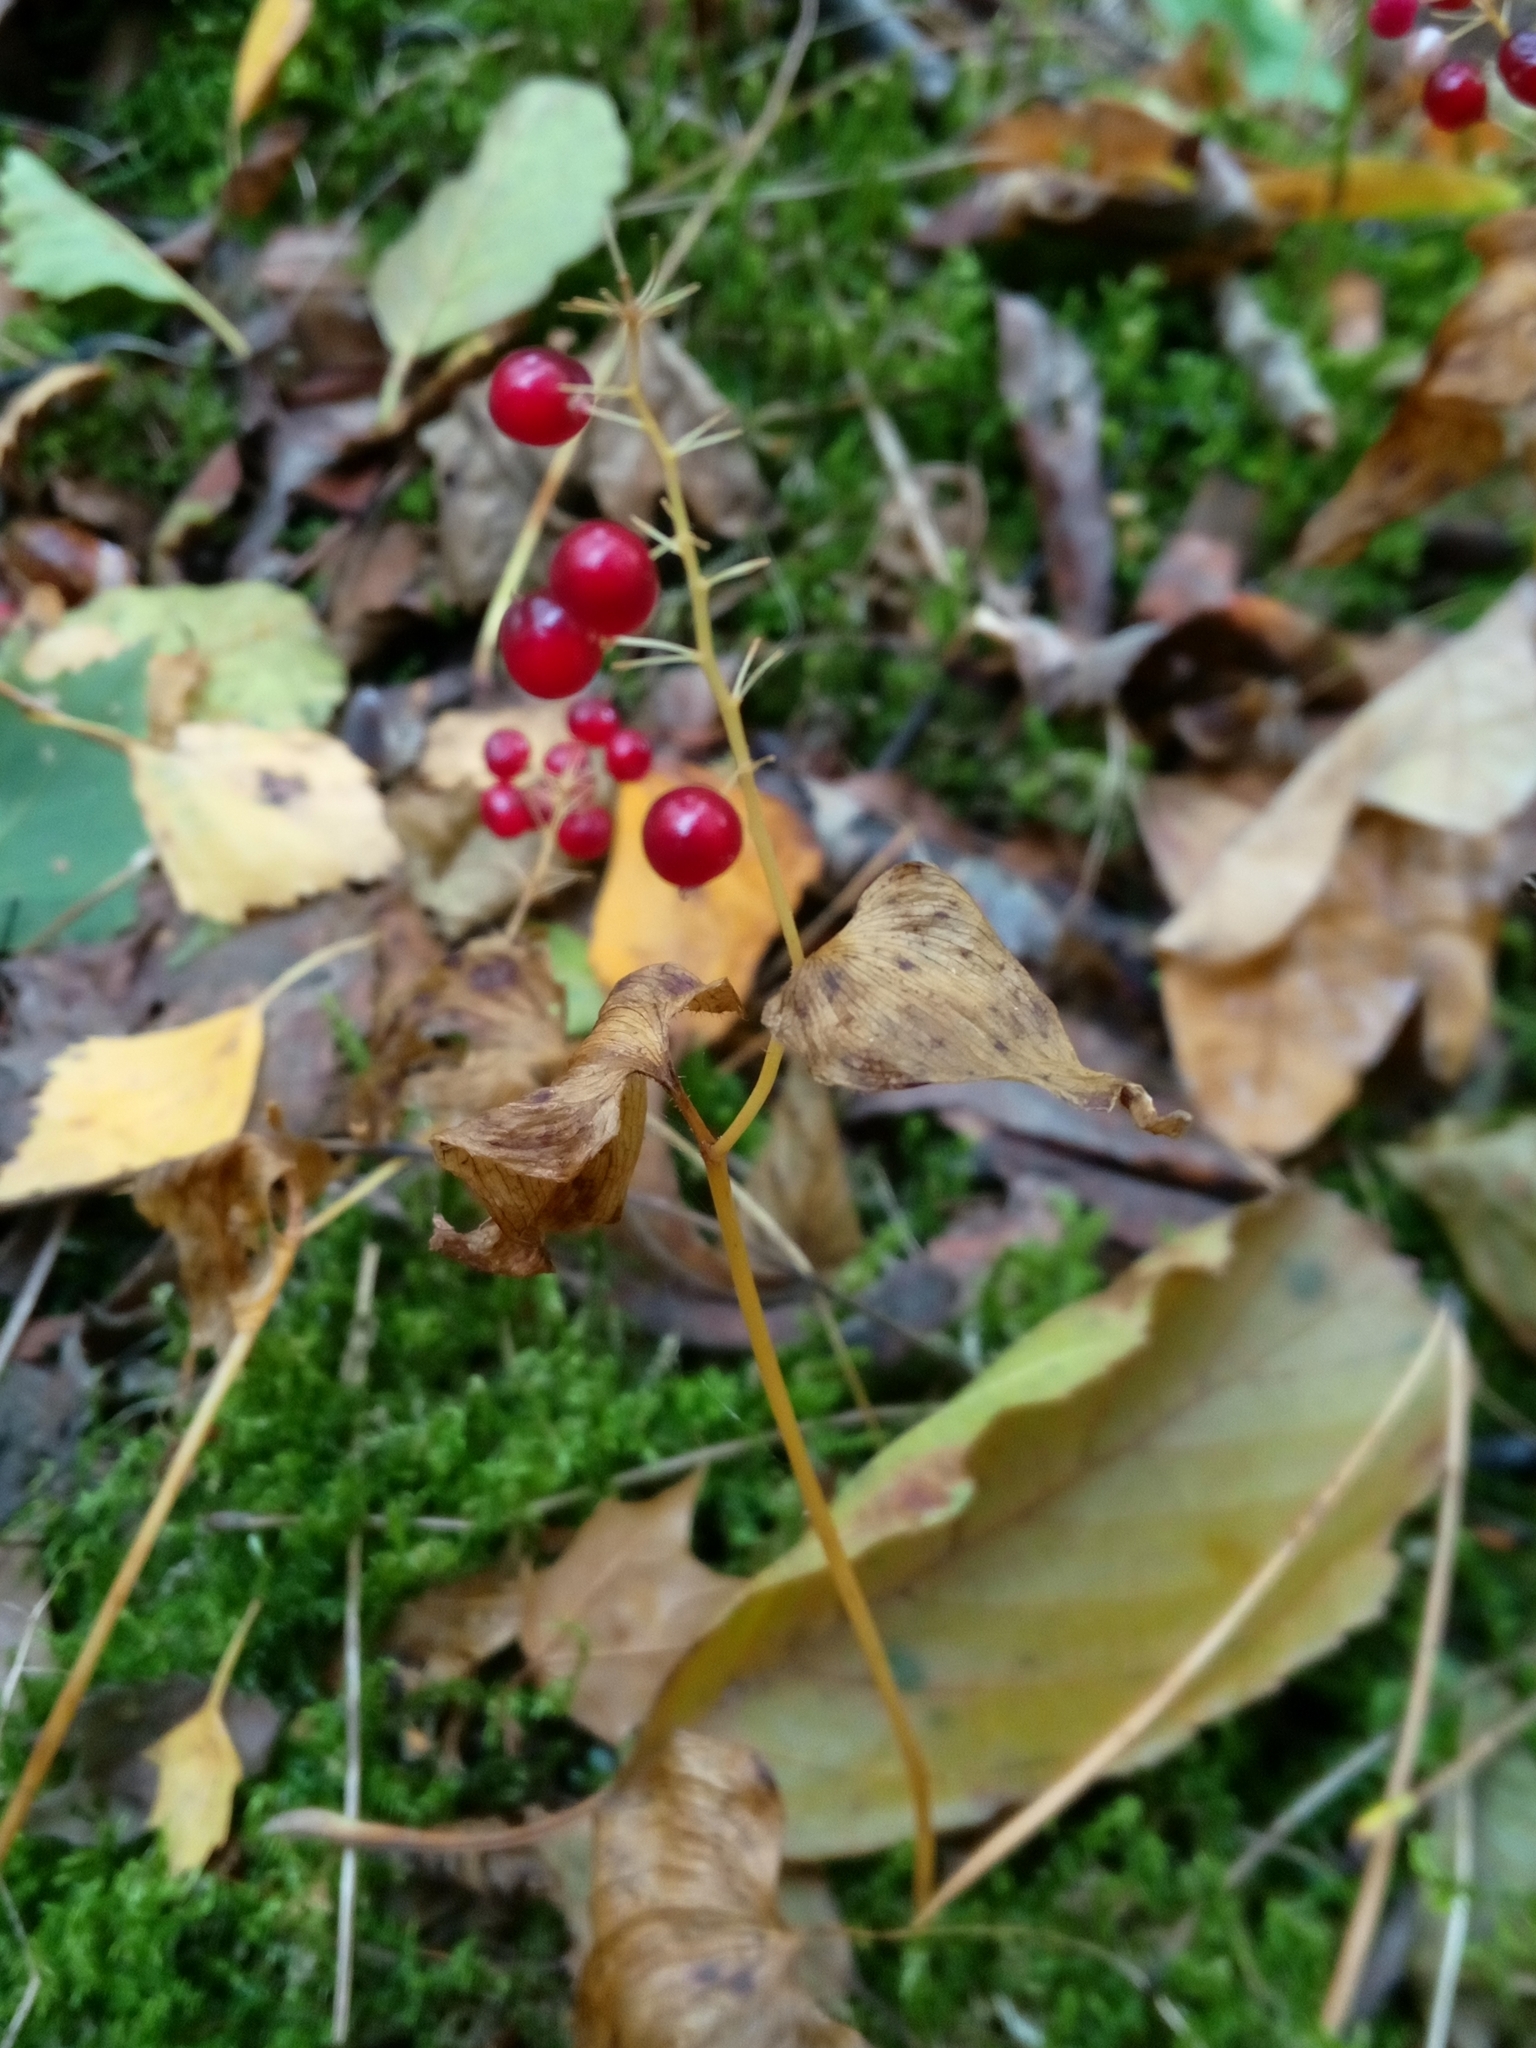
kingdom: Plantae
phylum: Tracheophyta
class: Liliopsida
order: Asparagales
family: Asparagaceae
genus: Maianthemum
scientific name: Maianthemum bifolium
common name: May lily
